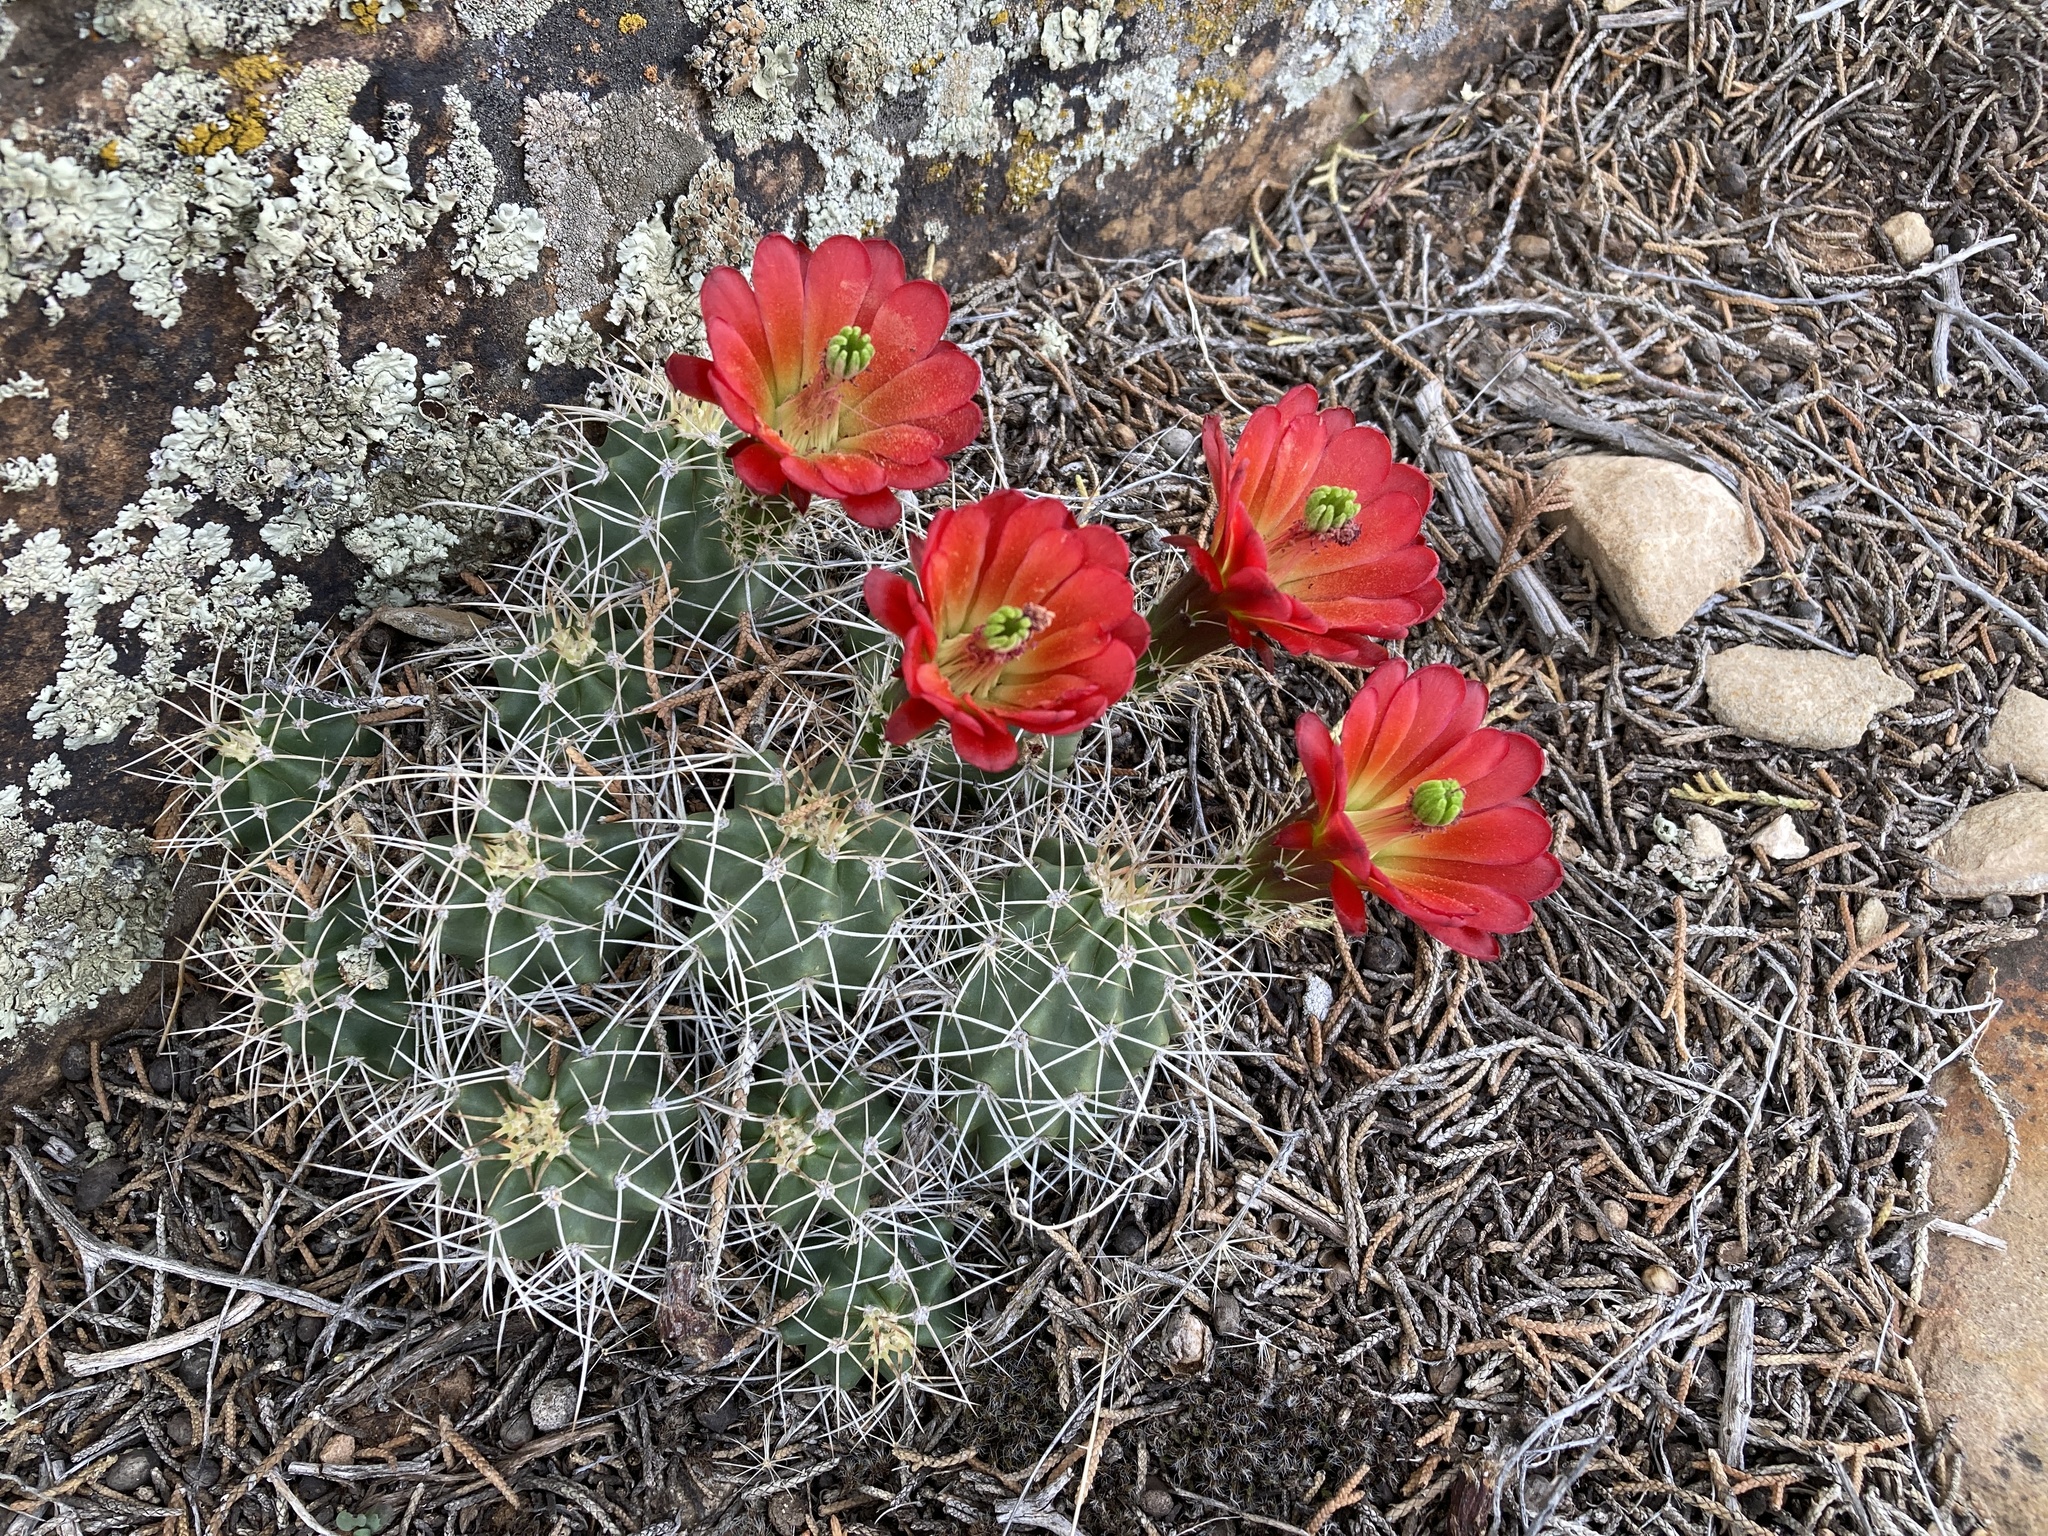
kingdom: Plantae
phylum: Tracheophyta
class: Magnoliopsida
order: Caryophyllales
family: Cactaceae
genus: Echinocereus
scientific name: Echinocereus triglochidiatus
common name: Claretcup hedgehog
